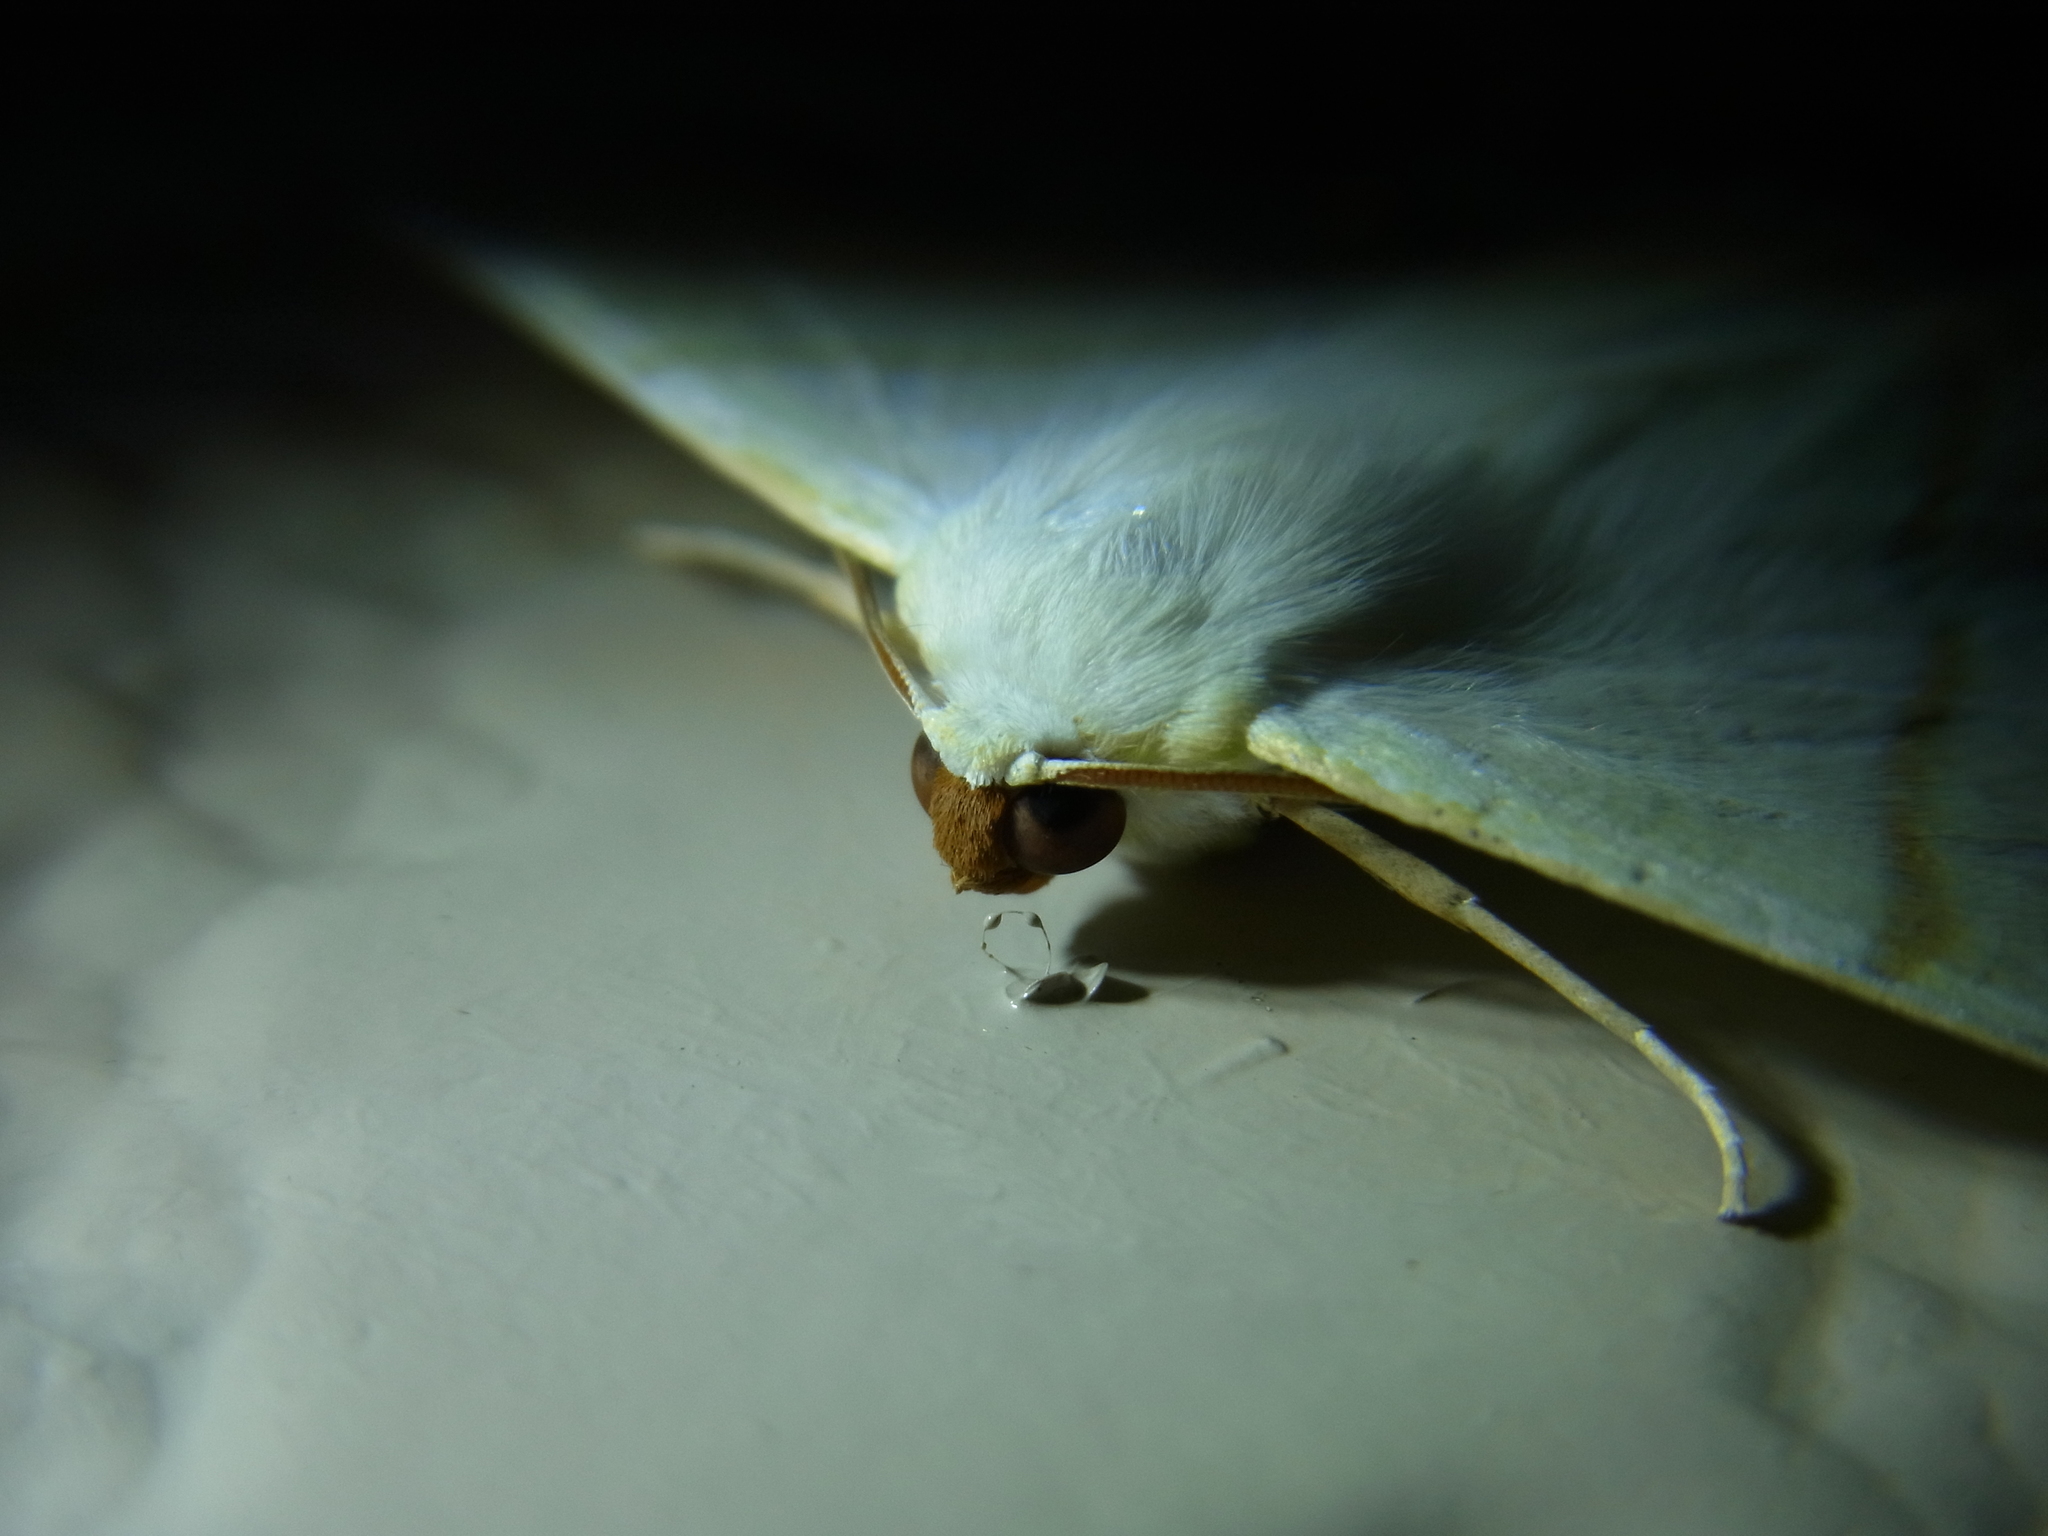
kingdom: Animalia
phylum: Arthropoda
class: Insecta
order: Lepidoptera
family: Geometridae
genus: Ourapteryx
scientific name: Ourapteryx nivea
